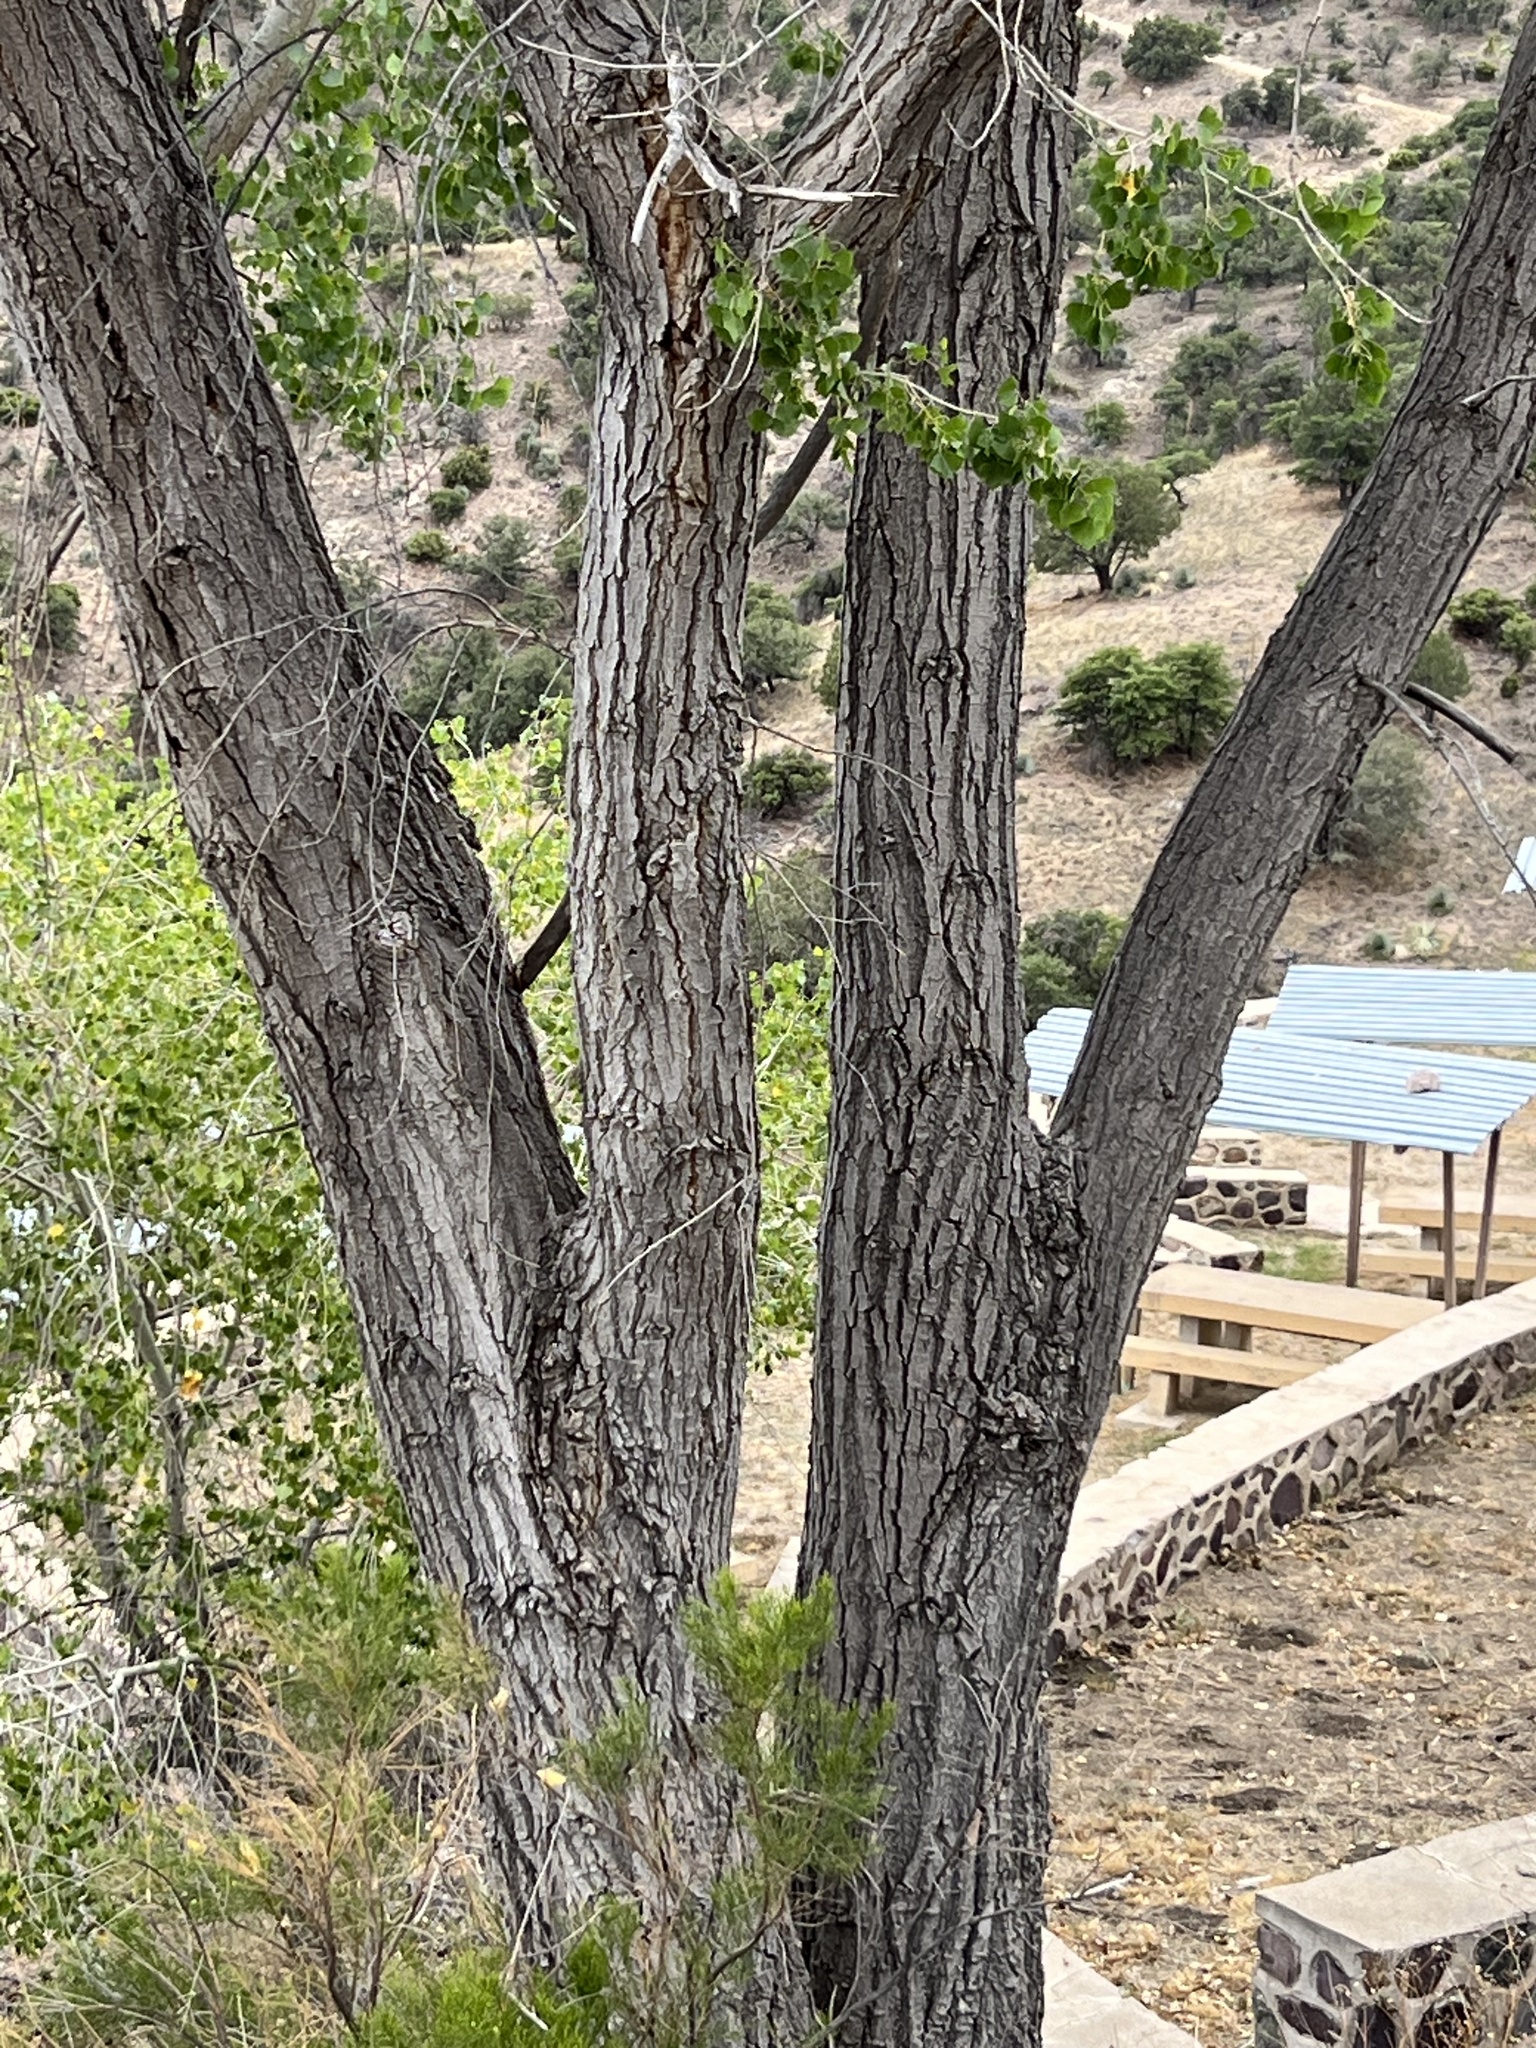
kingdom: Plantae
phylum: Tracheophyta
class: Magnoliopsida
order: Malpighiales
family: Salicaceae
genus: Populus
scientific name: Populus fremontii
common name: Fremont's cottonwood
